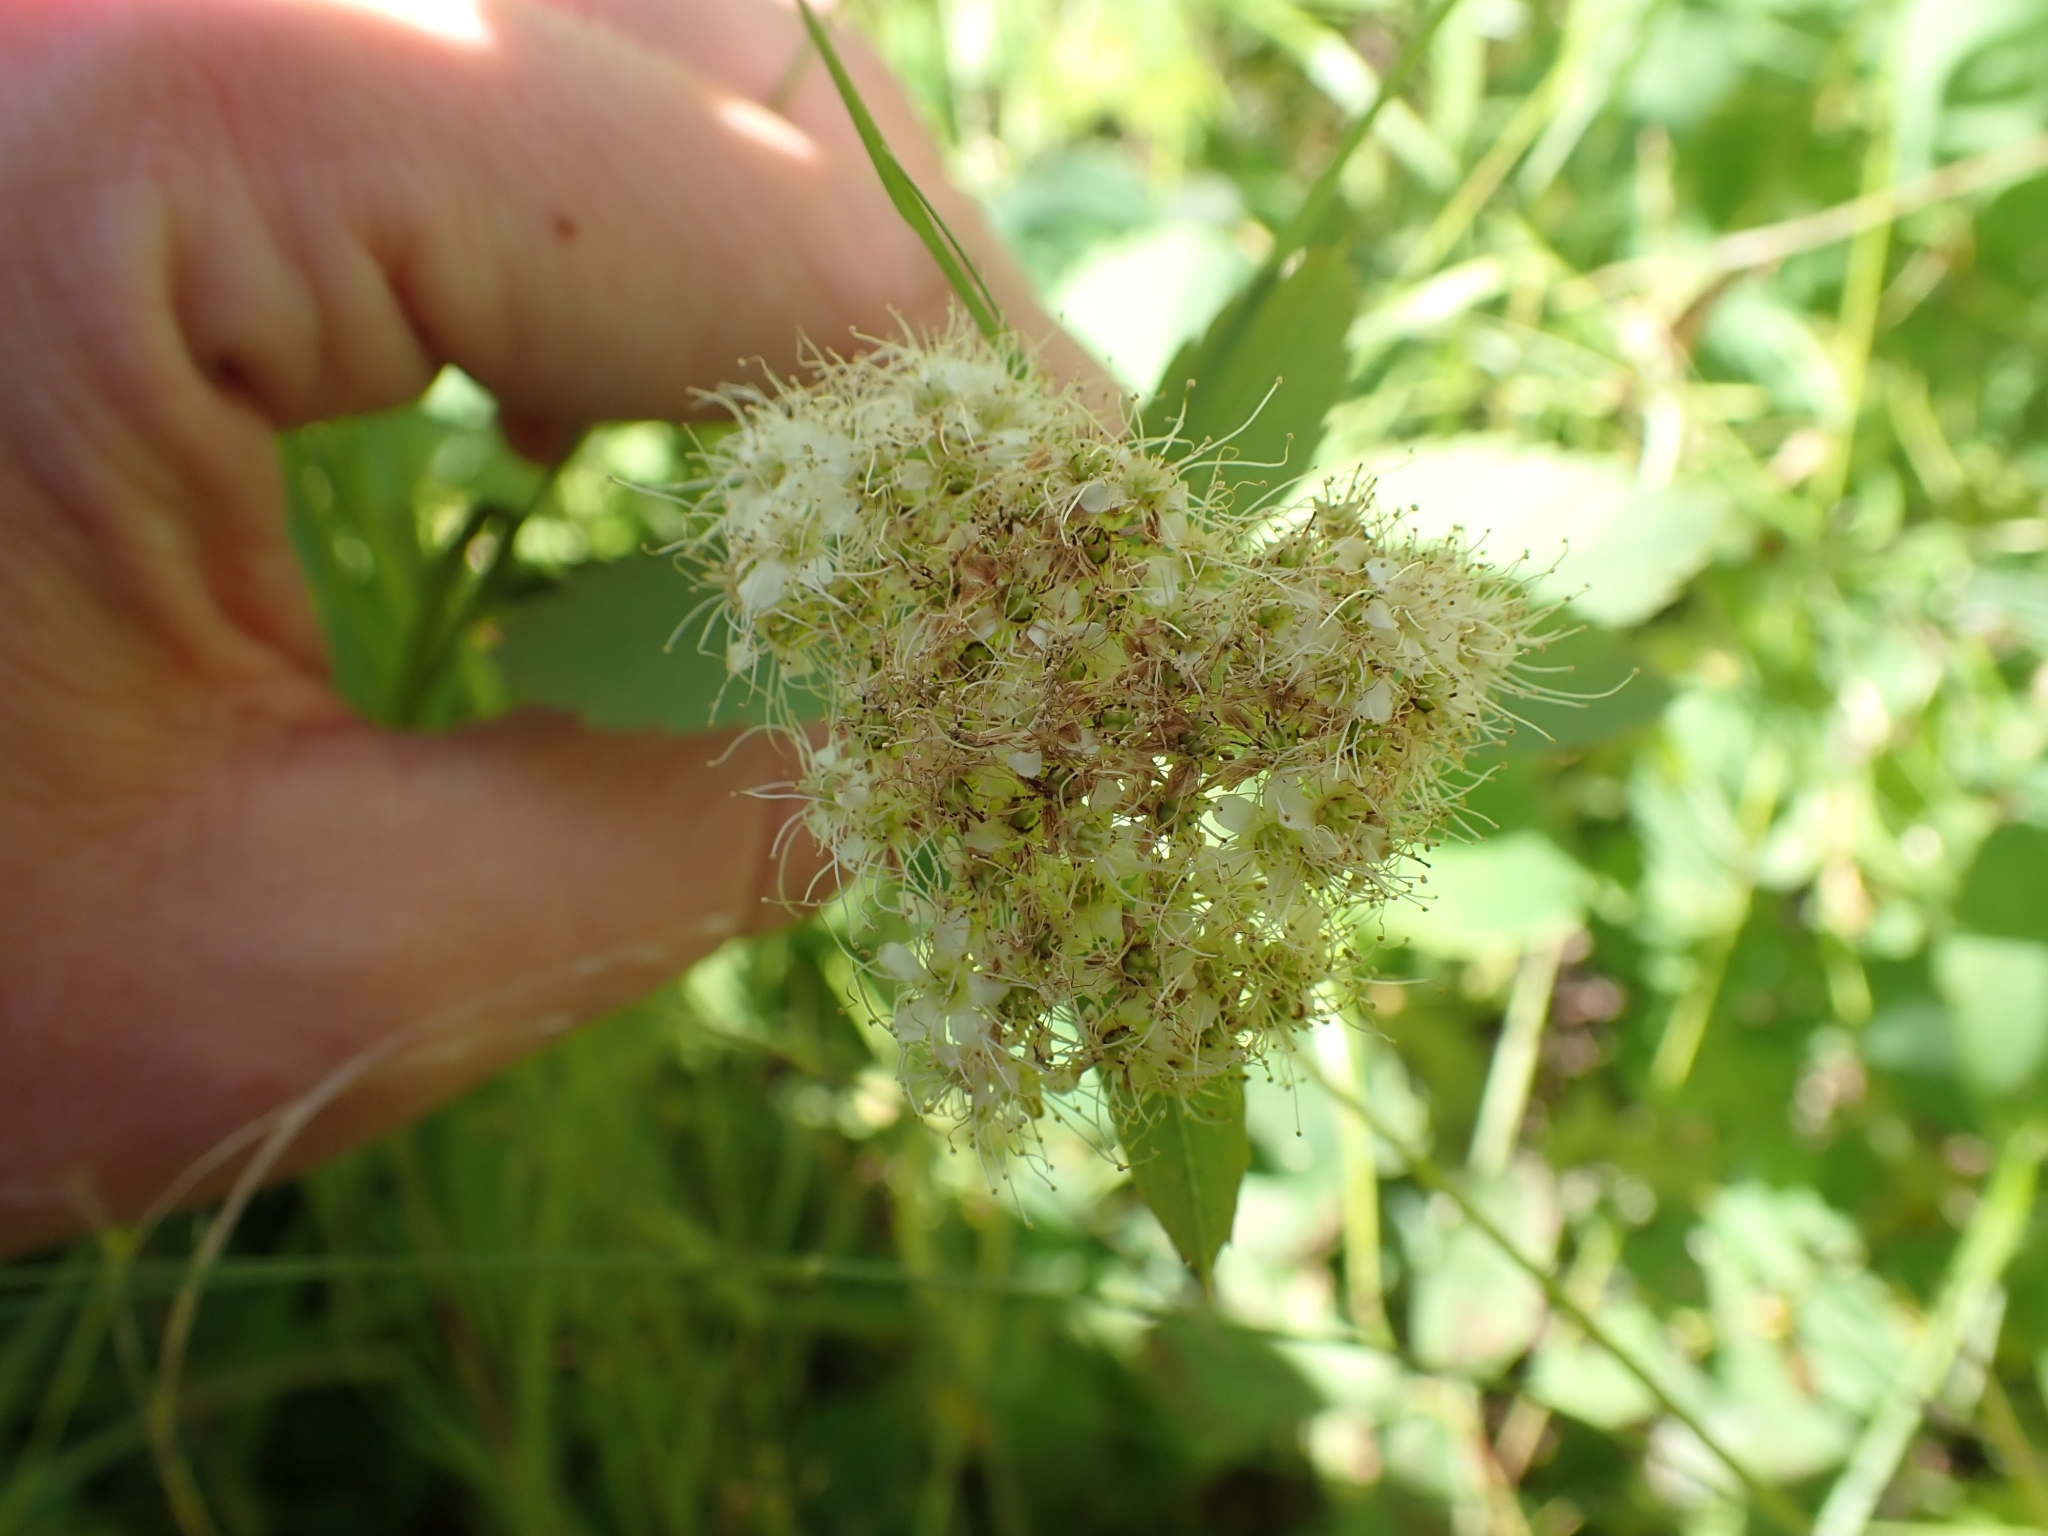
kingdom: Plantae
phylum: Tracheophyta
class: Magnoliopsida
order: Rosales
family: Rosaceae
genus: Spiraea
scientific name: Spiraea lucida
